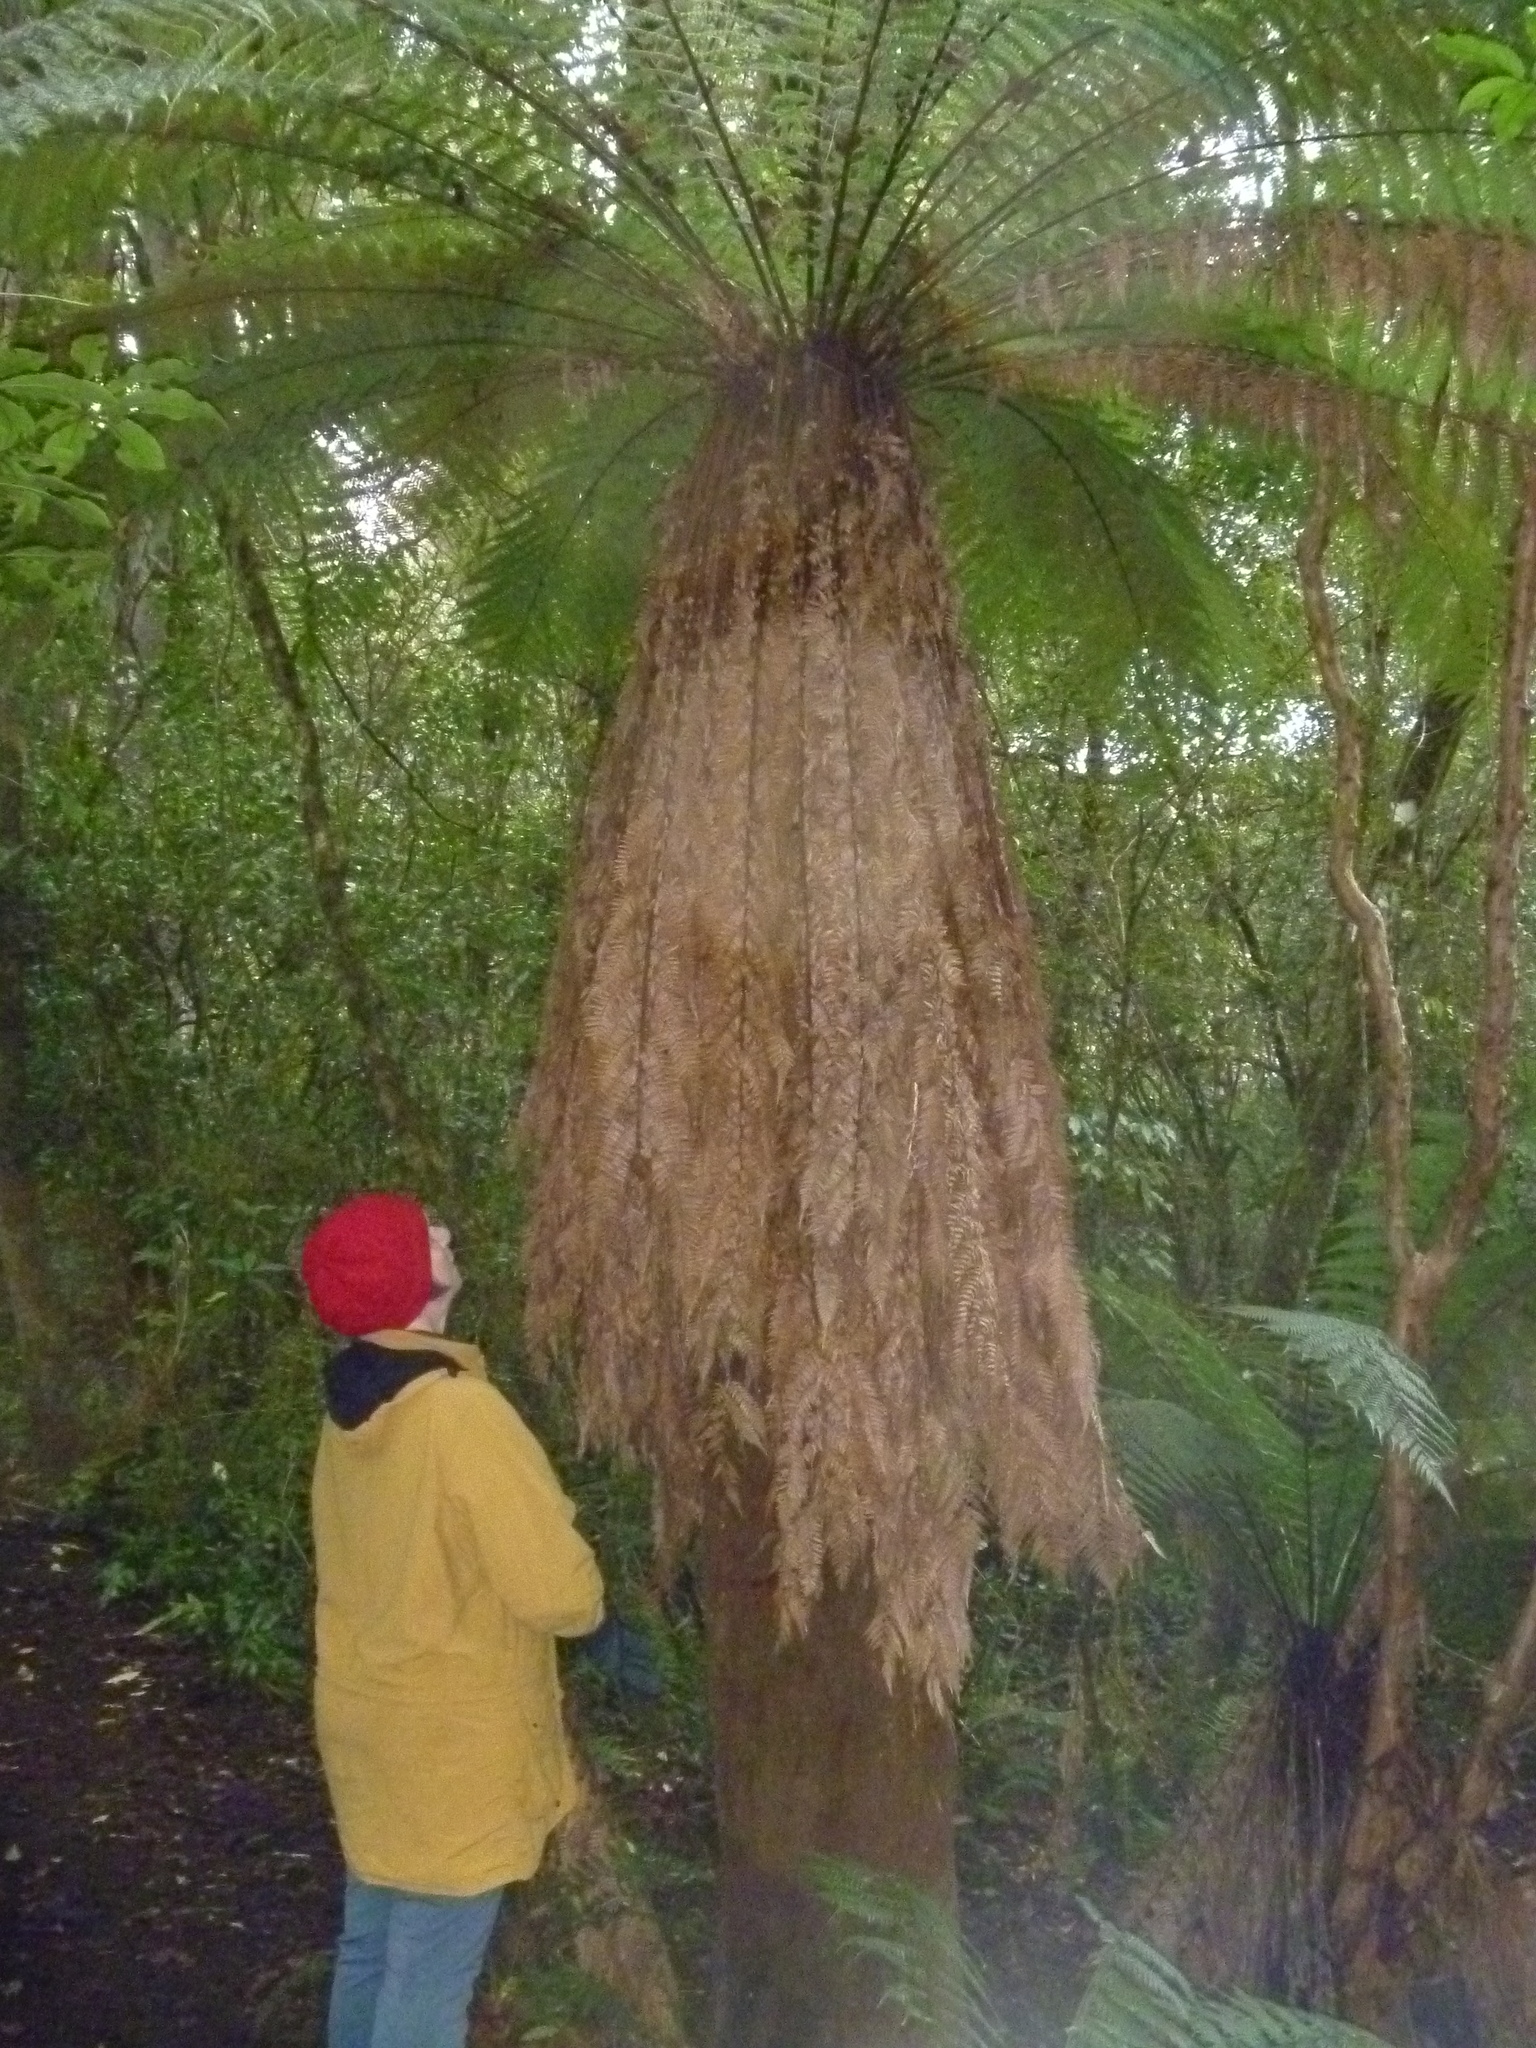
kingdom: Plantae
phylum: Tracheophyta
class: Polypodiopsida
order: Cyatheales
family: Dicksoniaceae
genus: Dicksonia
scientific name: Dicksonia fibrosa
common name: Golden tree fern
